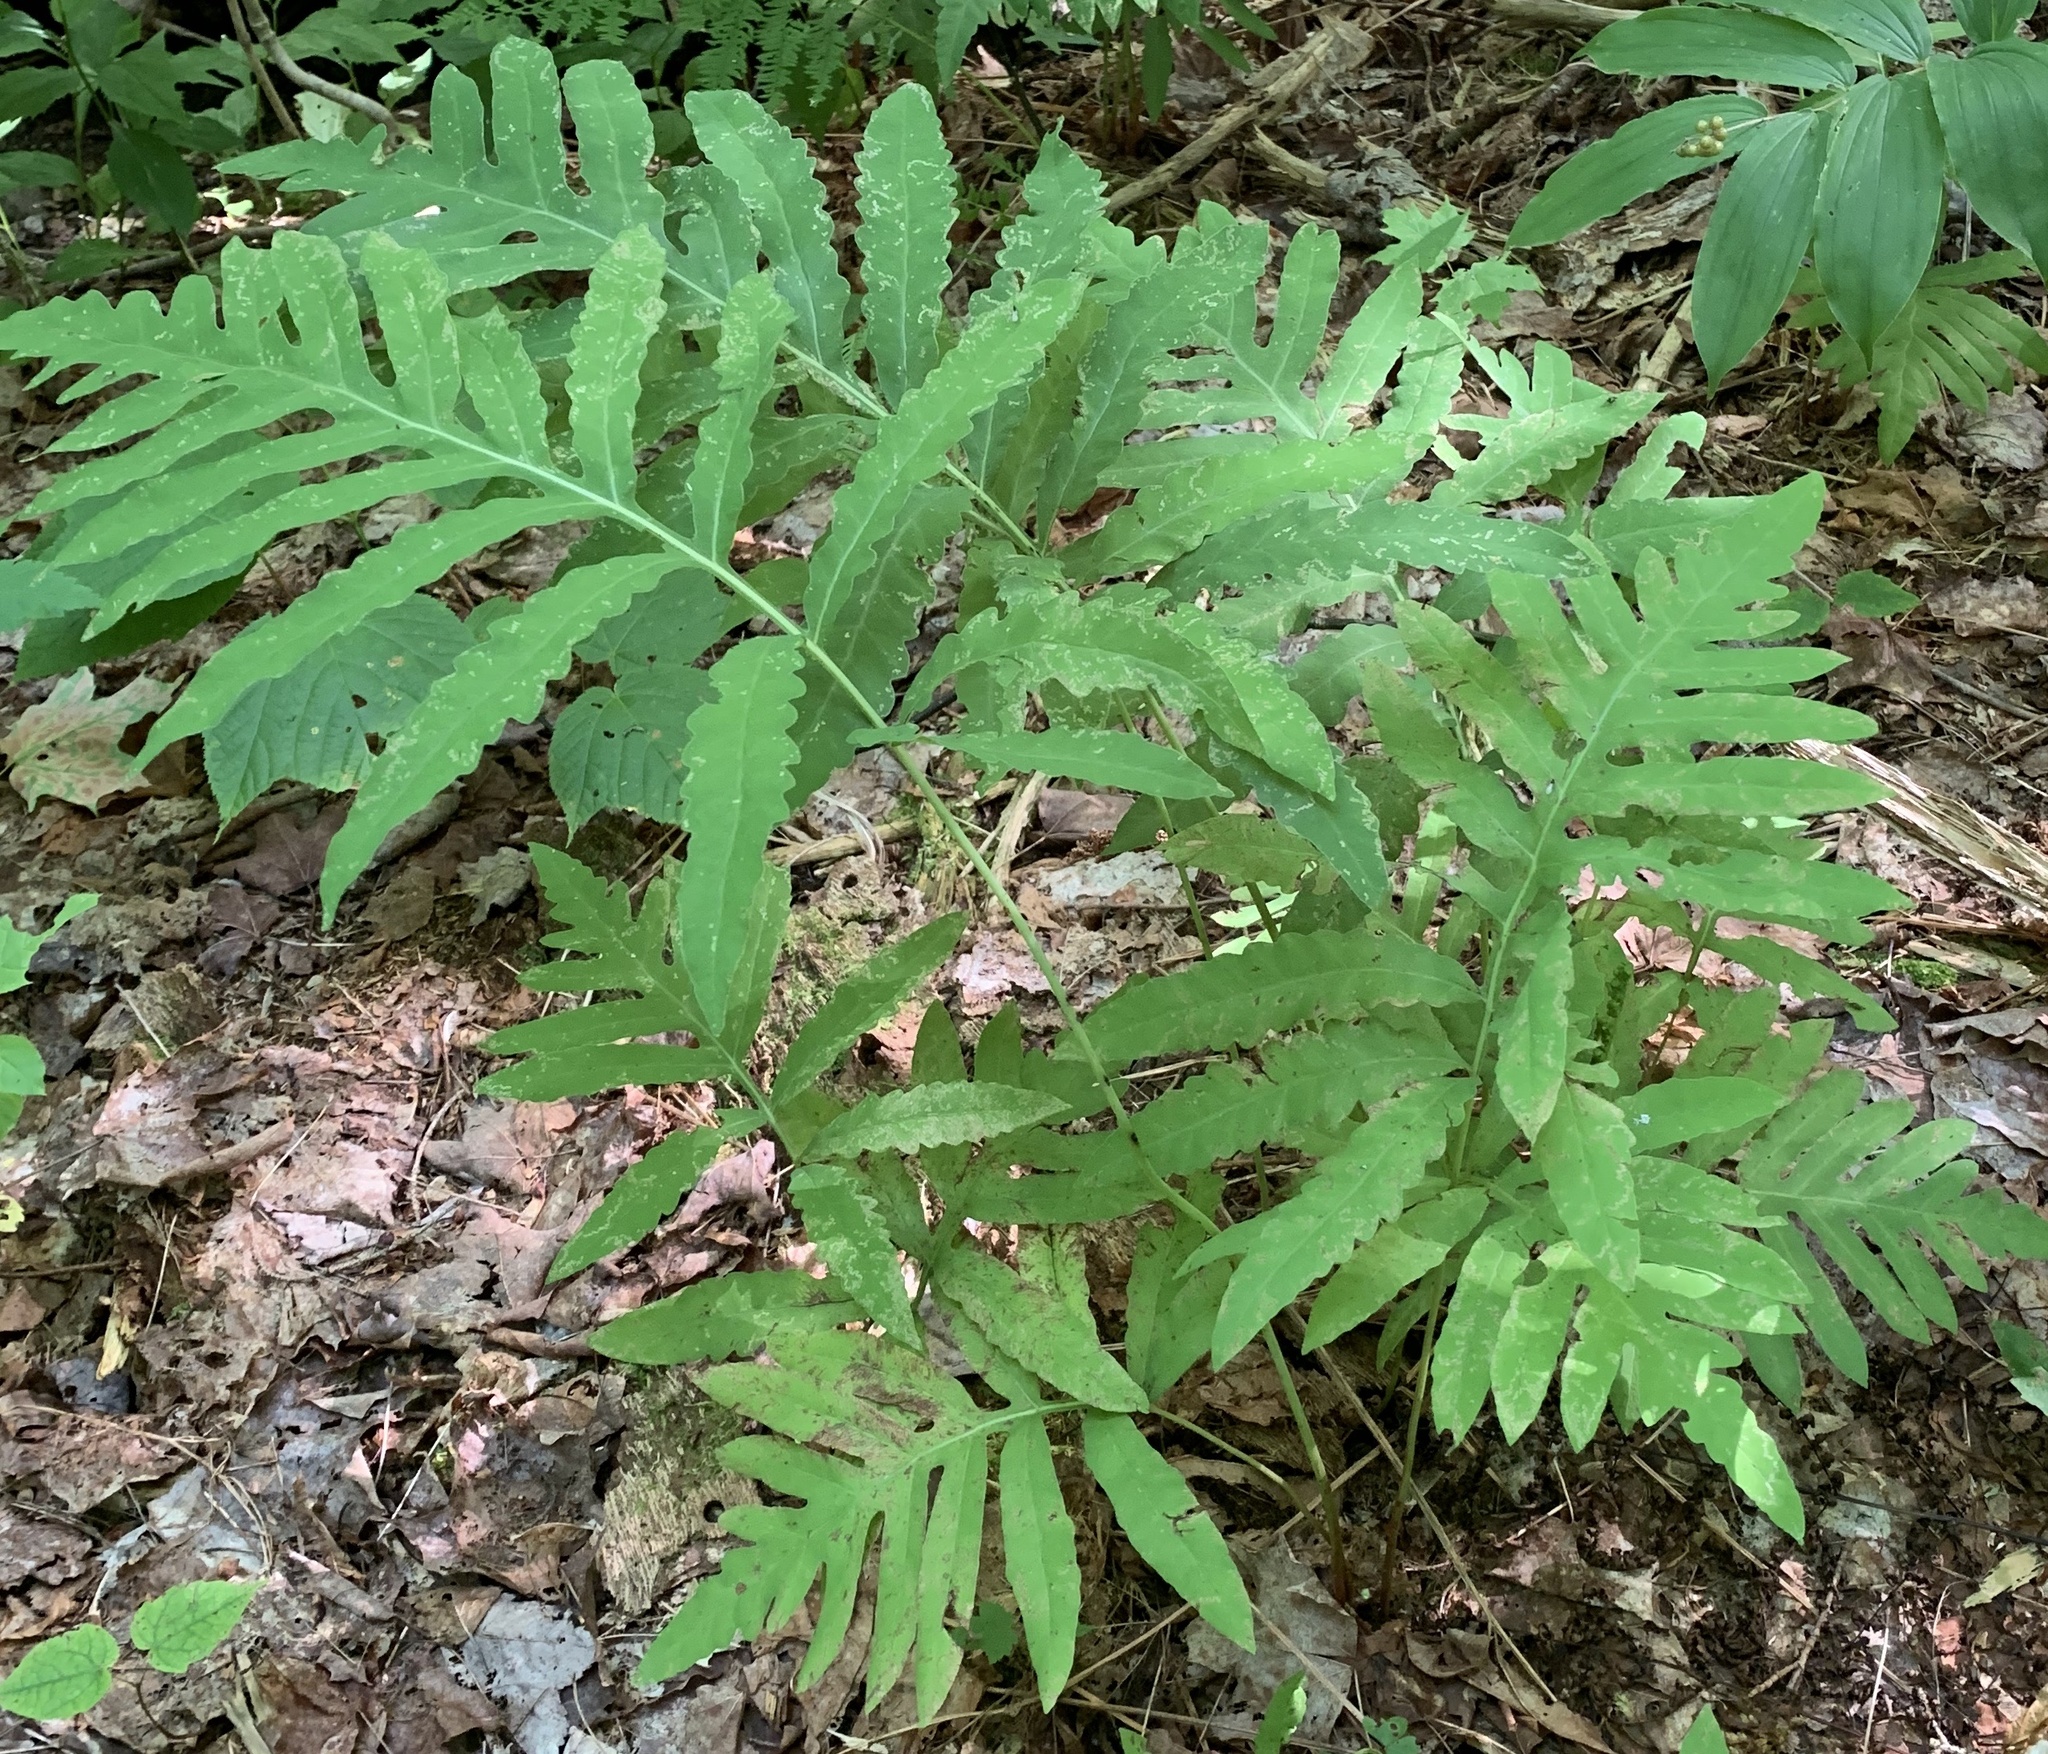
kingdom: Plantae
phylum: Tracheophyta
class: Polypodiopsida
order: Polypodiales
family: Onocleaceae
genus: Onoclea
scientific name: Onoclea sensibilis
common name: Sensitive fern
